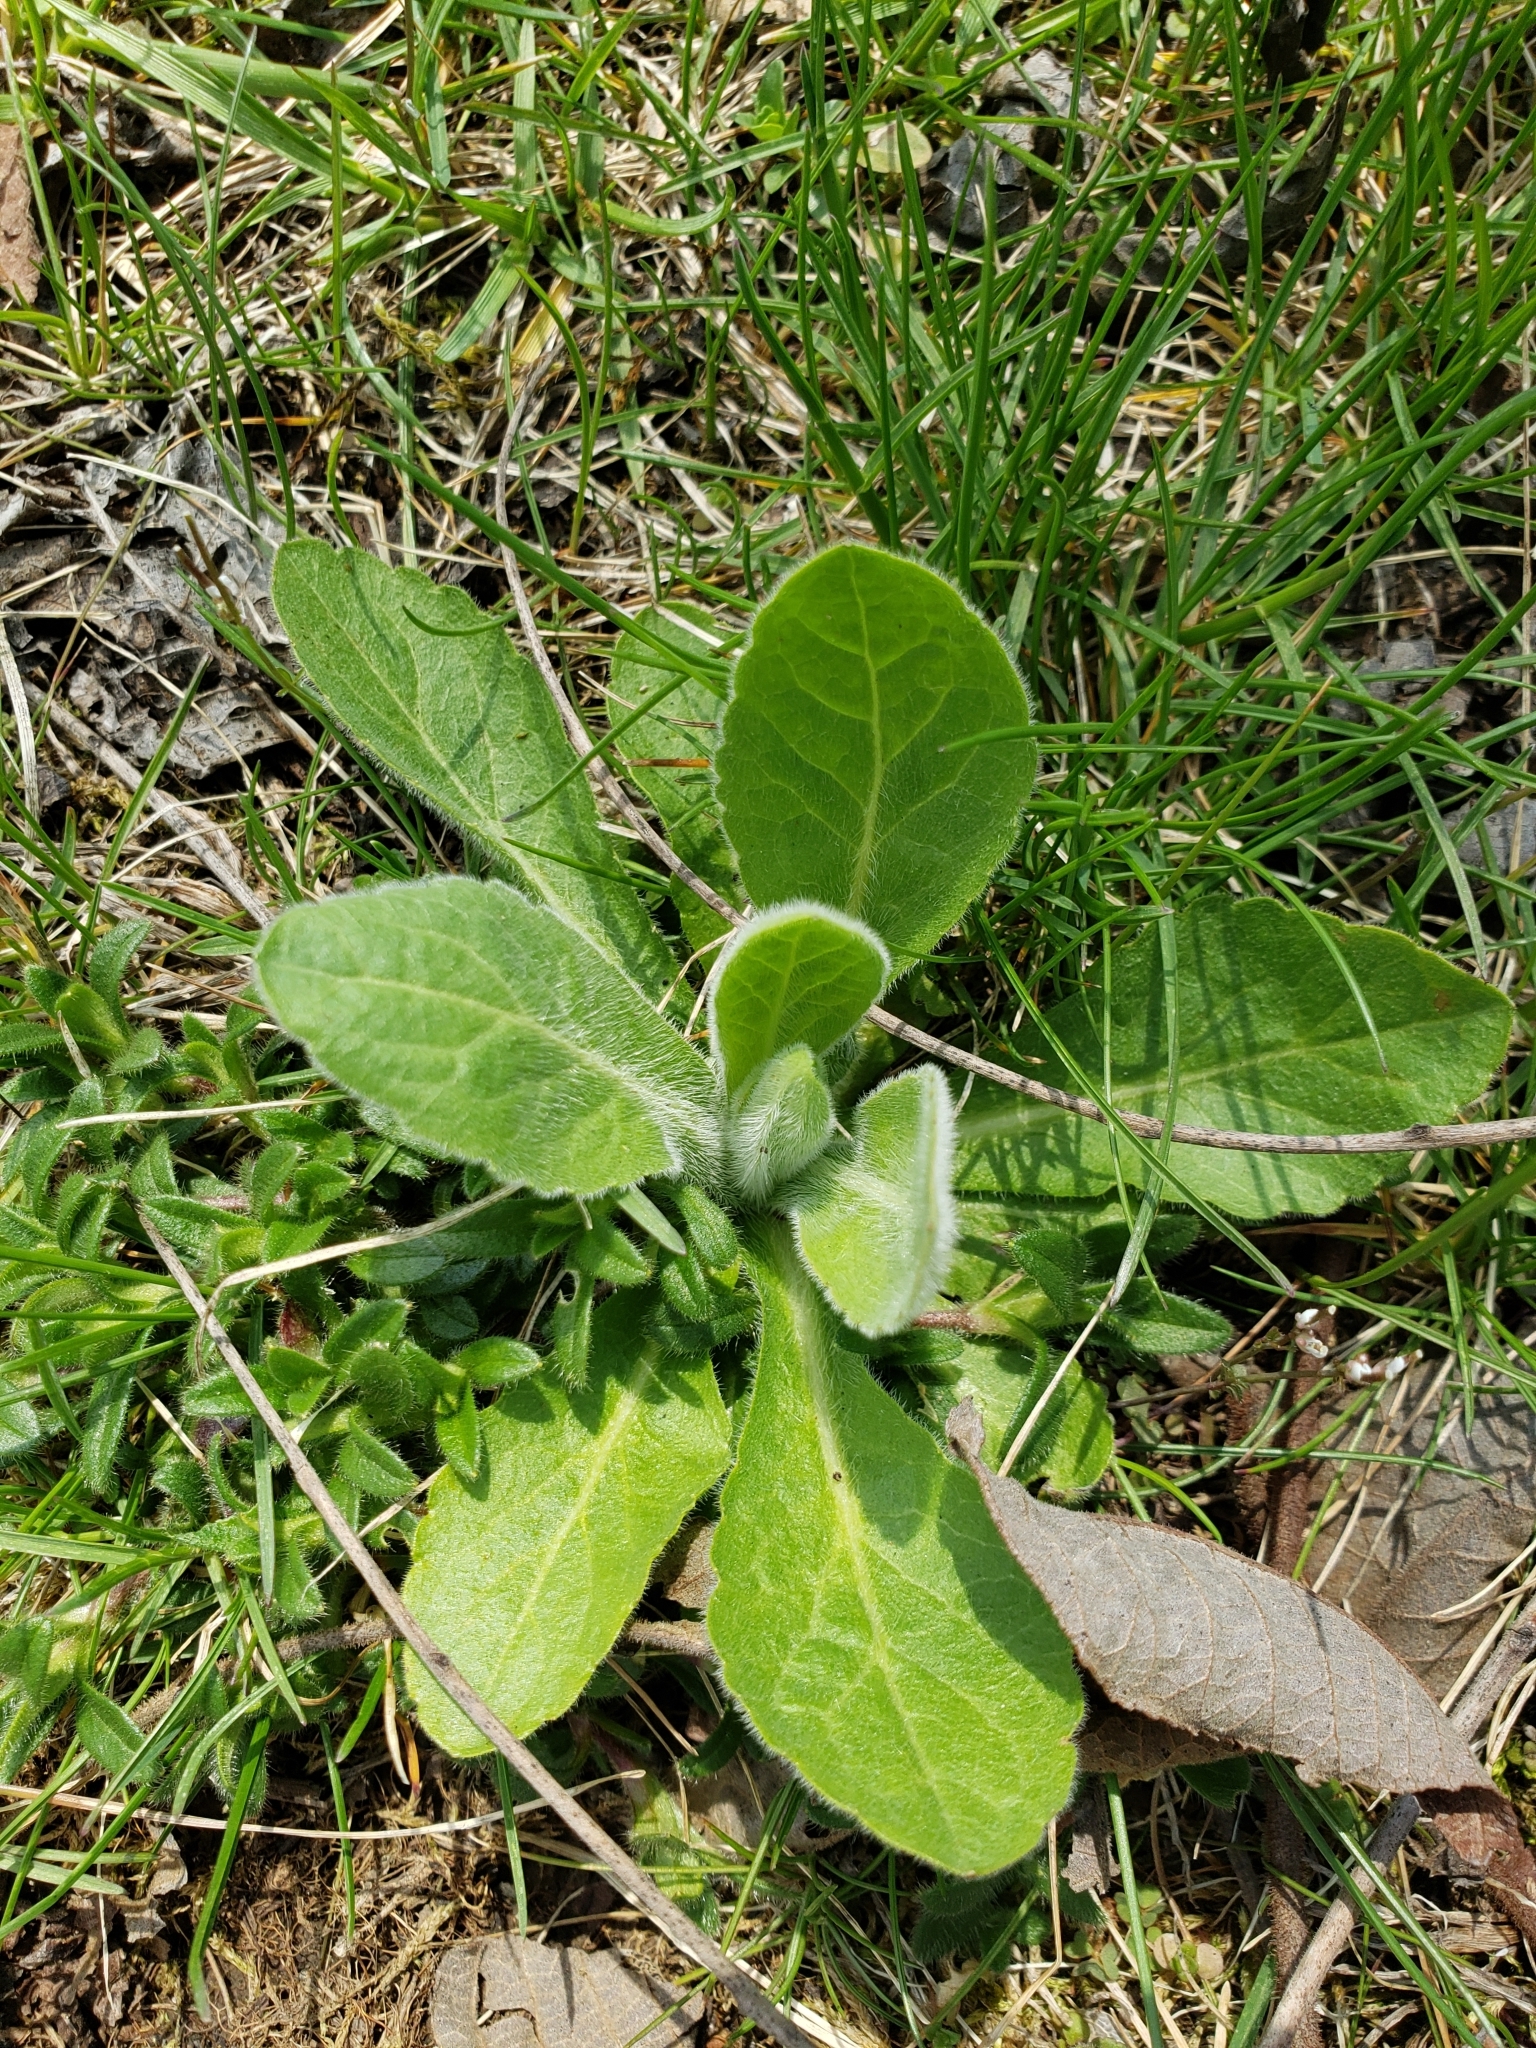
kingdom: Plantae
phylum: Tracheophyta
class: Magnoliopsida
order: Lamiales
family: Scrophulariaceae
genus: Verbascum
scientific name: Verbascum thapsus
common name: Common mullein
